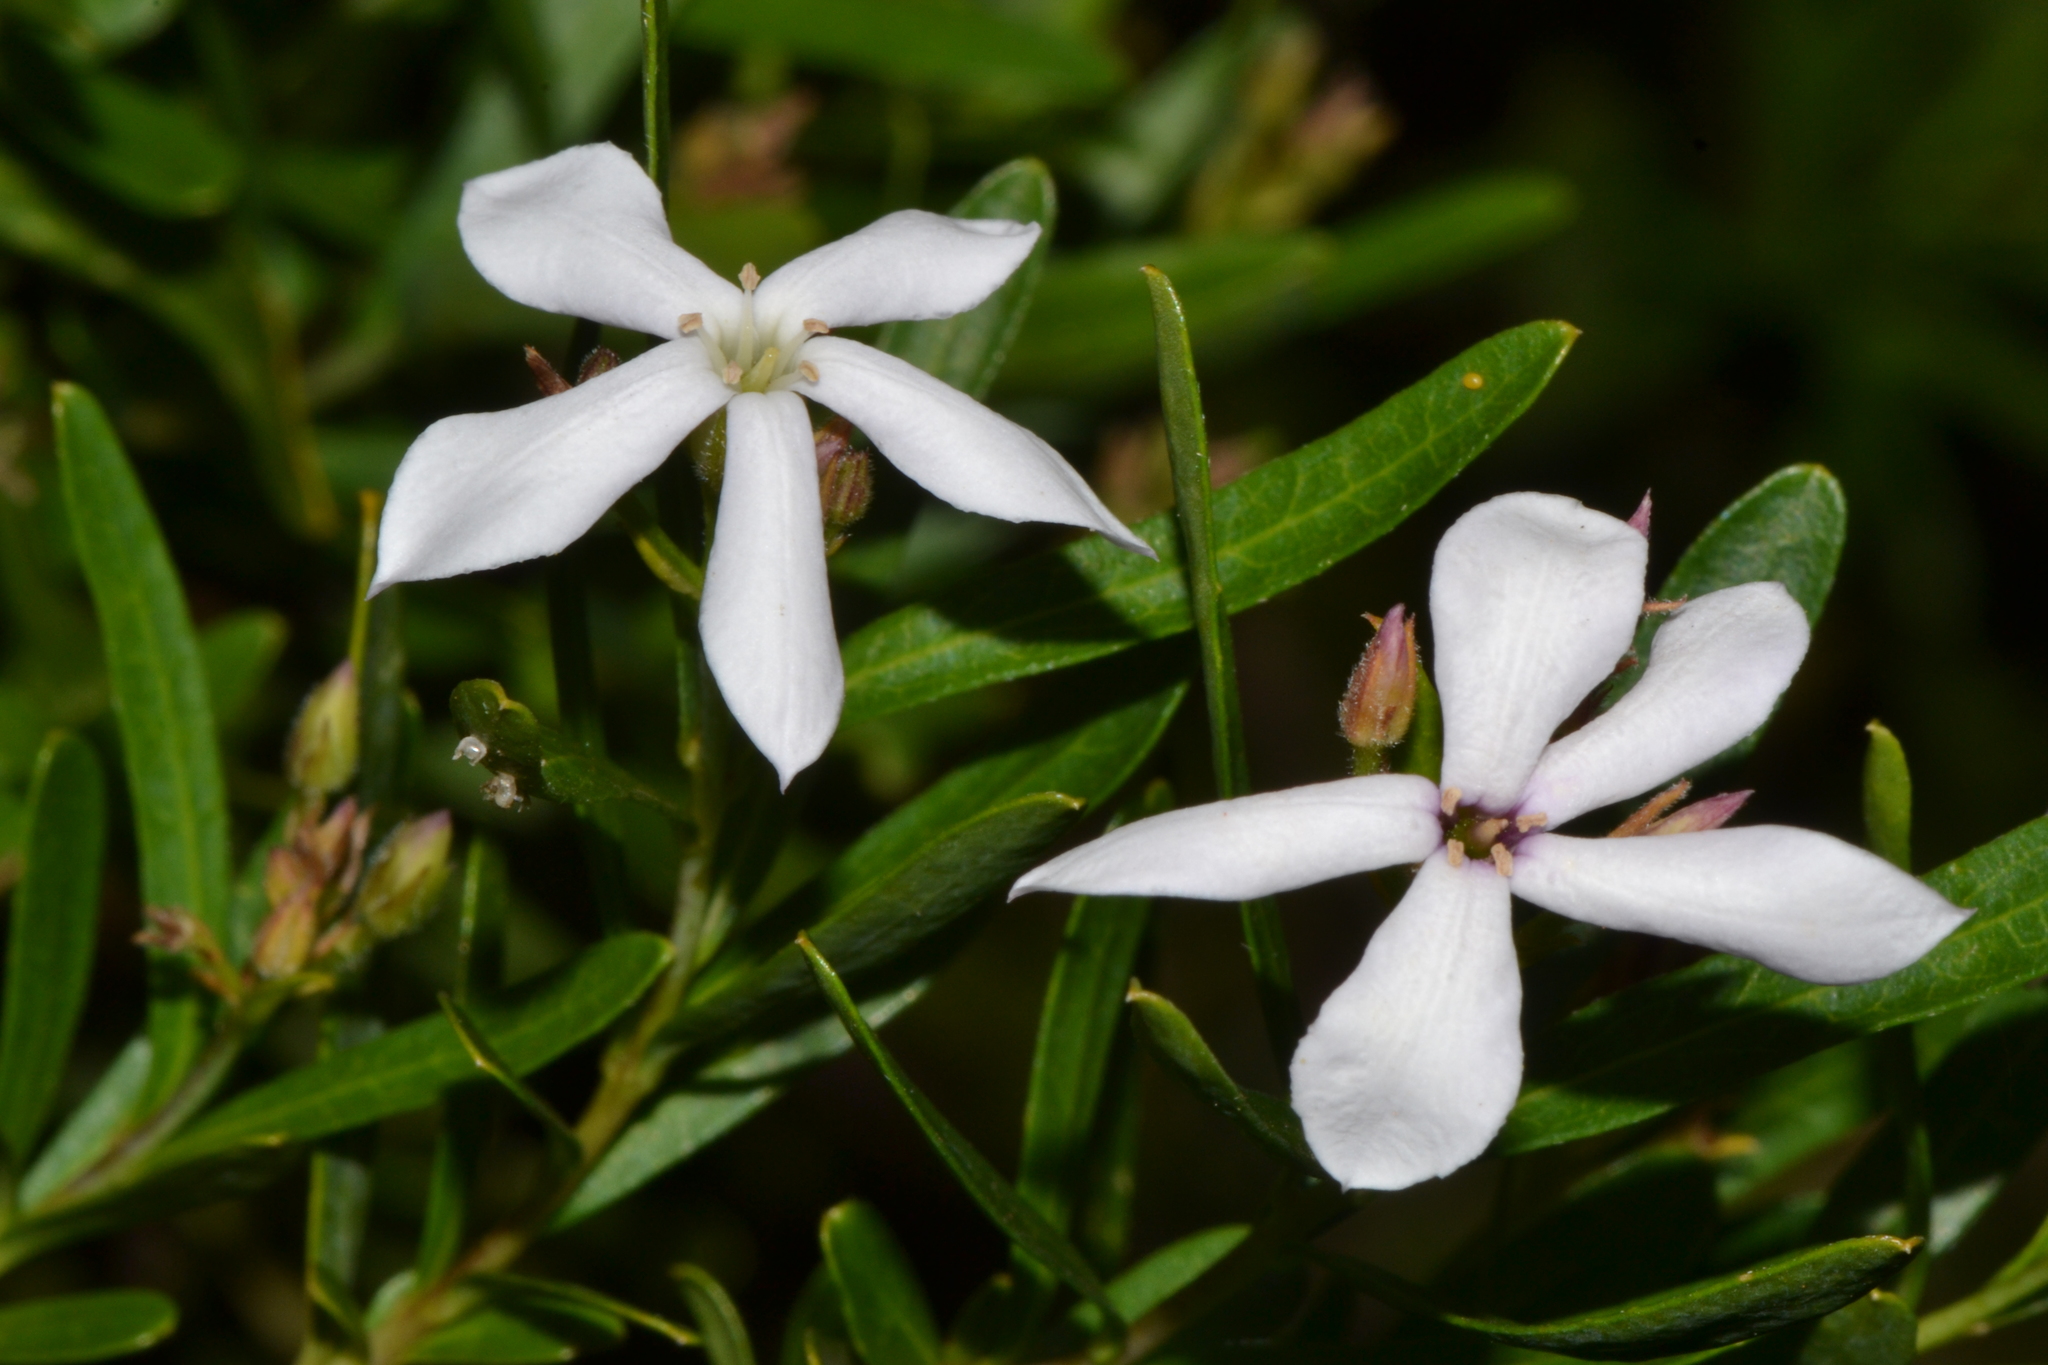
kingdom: Plantae
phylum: Tracheophyta
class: Magnoliopsida
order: Apiales
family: Pittosporaceae
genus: Billardiera
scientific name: Billardiera lehmanniana
